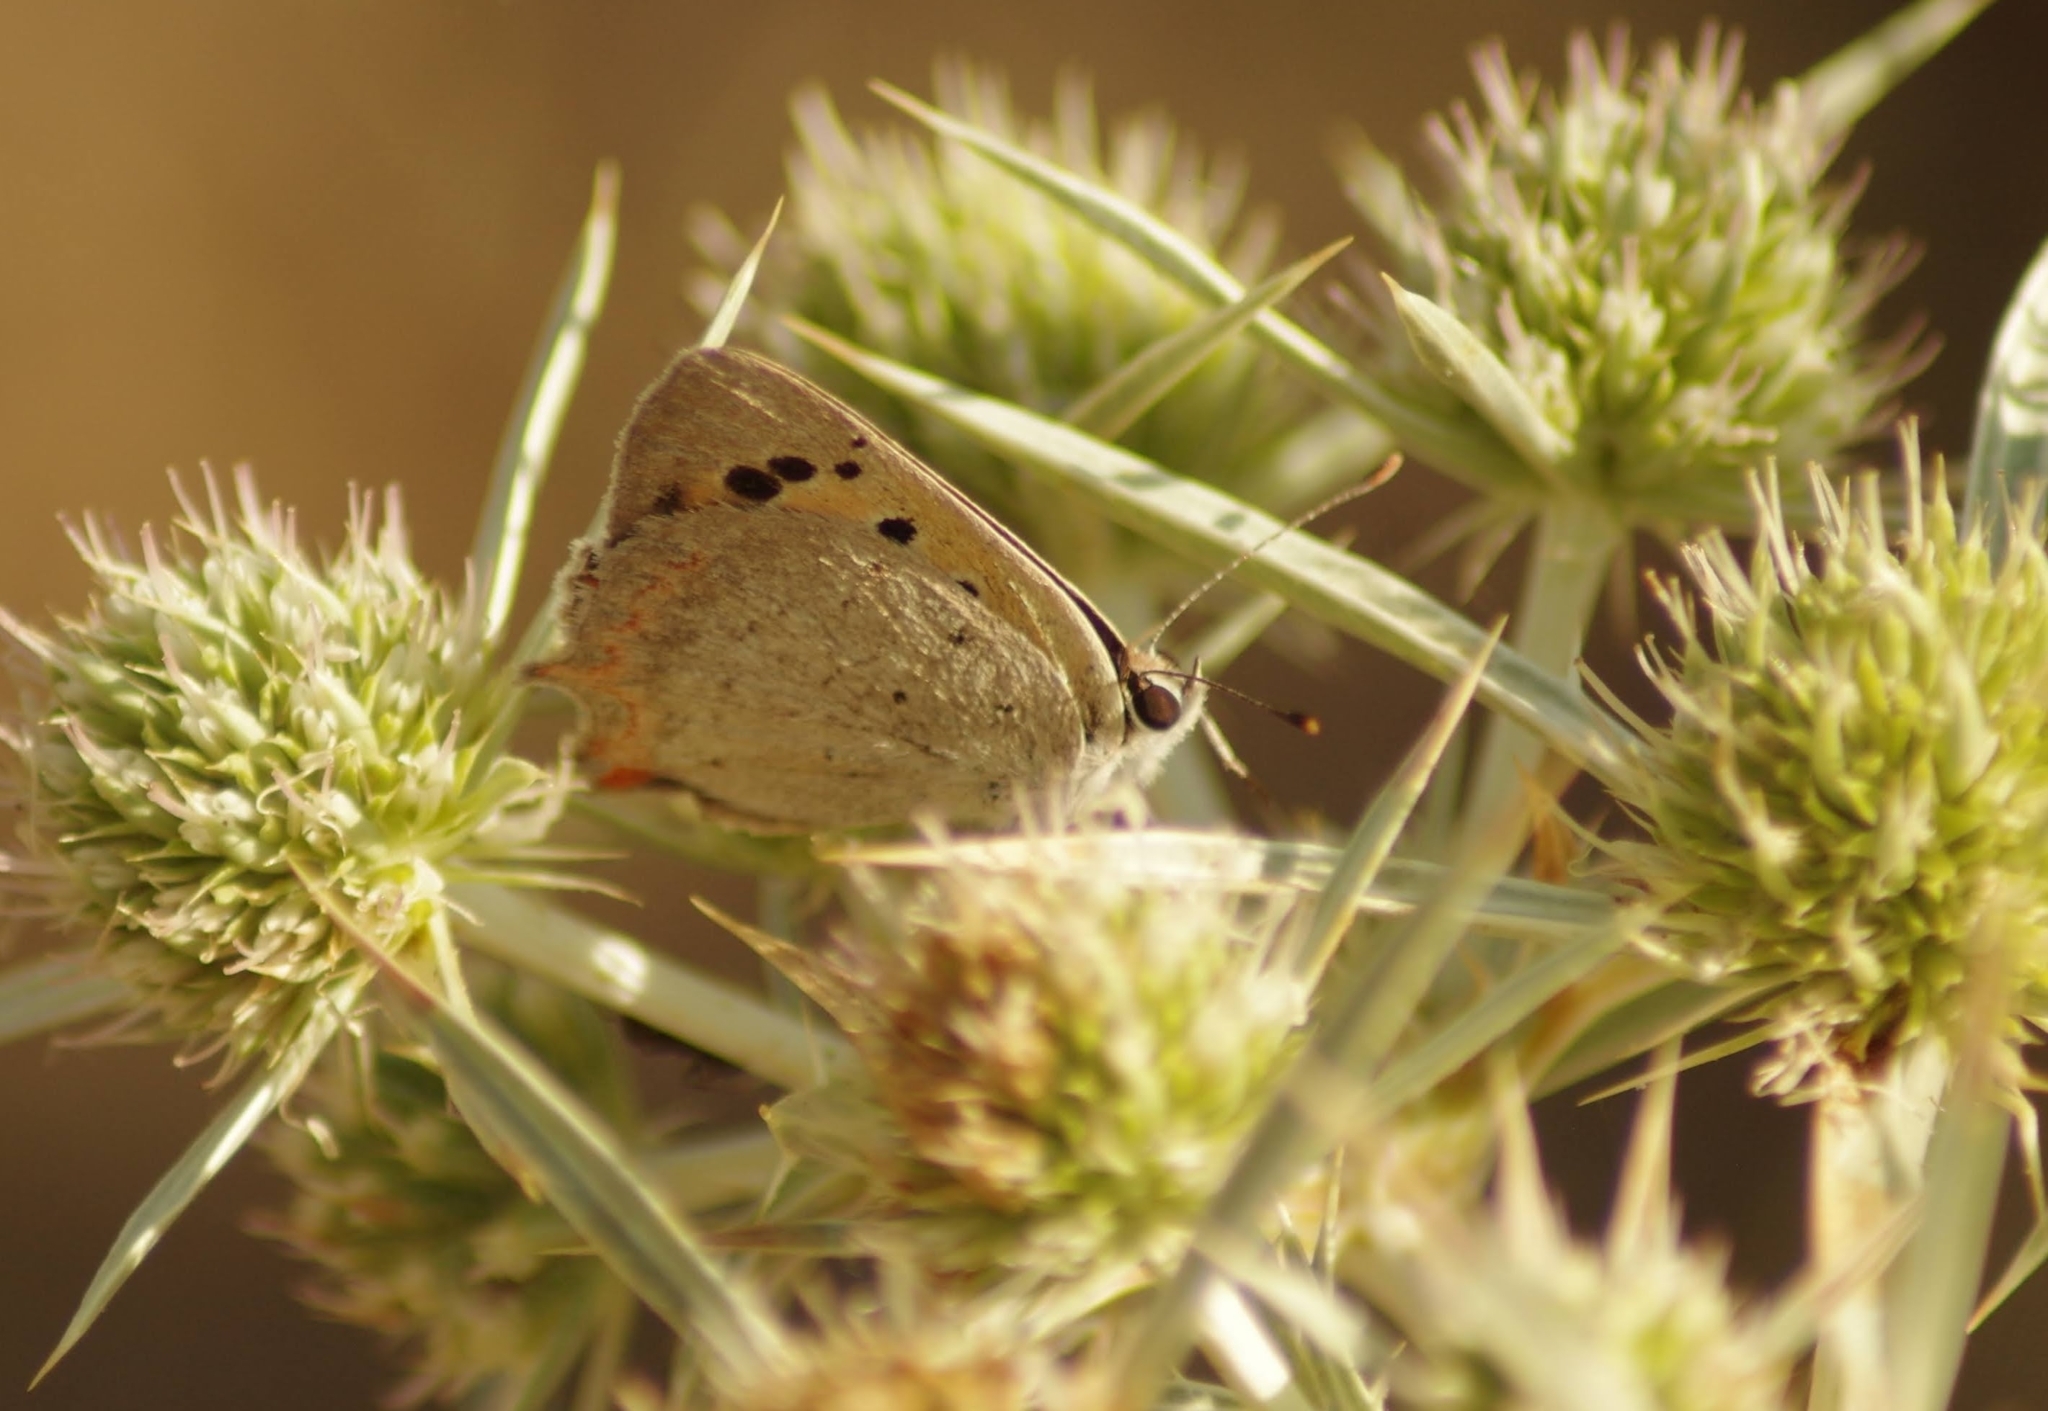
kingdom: Animalia
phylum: Arthropoda
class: Insecta
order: Lepidoptera
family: Lycaenidae
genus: Lycaena
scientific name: Lycaena phlaeas
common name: Small copper
